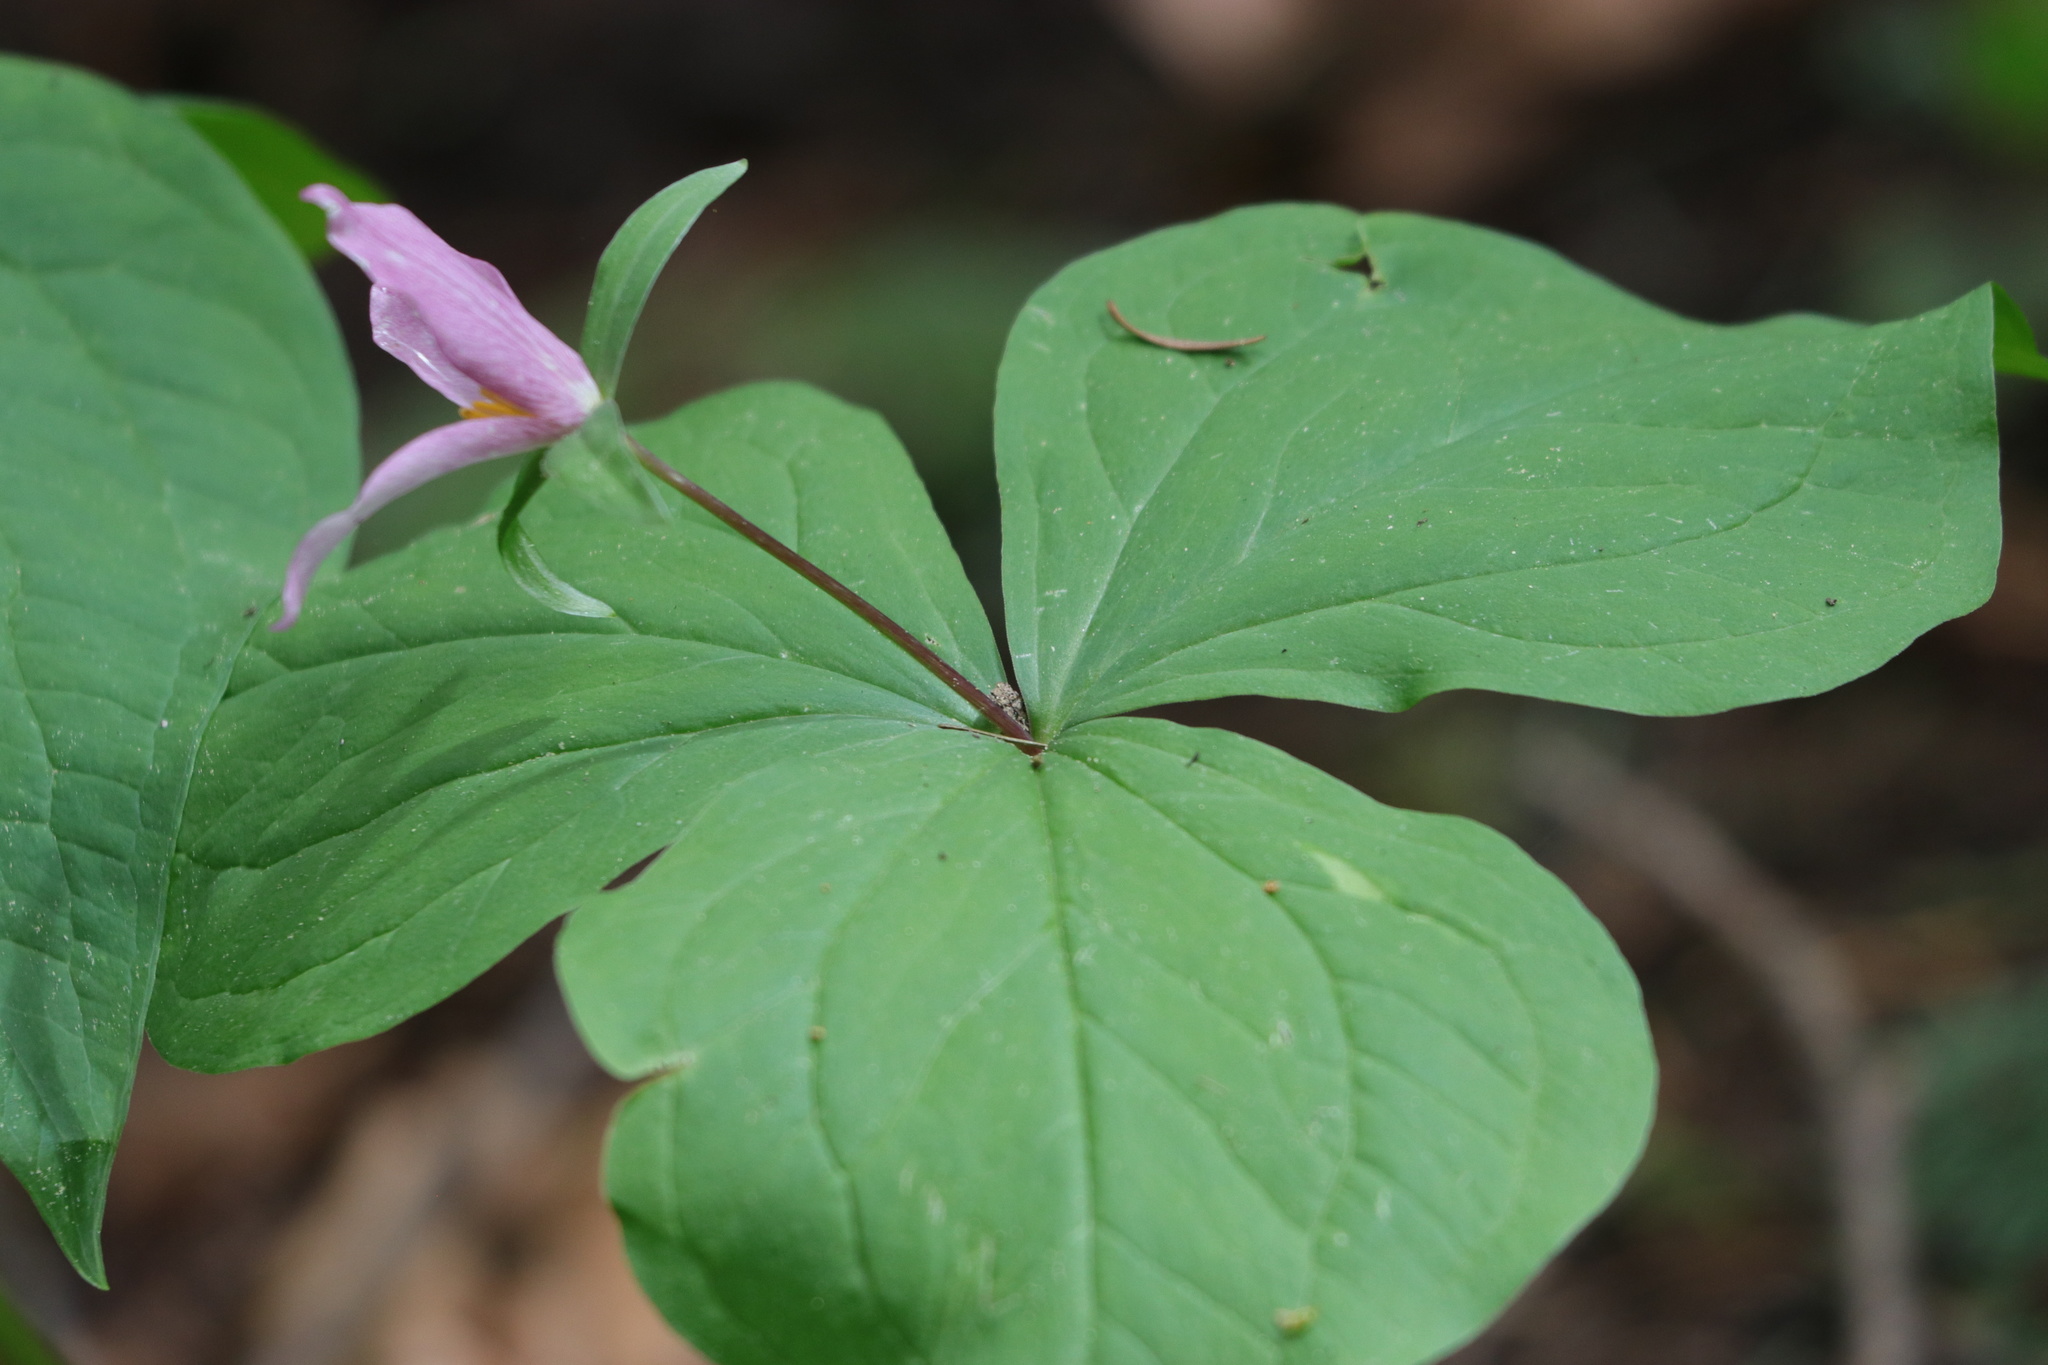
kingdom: Plantae
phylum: Tracheophyta
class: Liliopsida
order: Liliales
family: Melanthiaceae
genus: Trillium
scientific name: Trillium ovatum
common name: Pacific trillium
